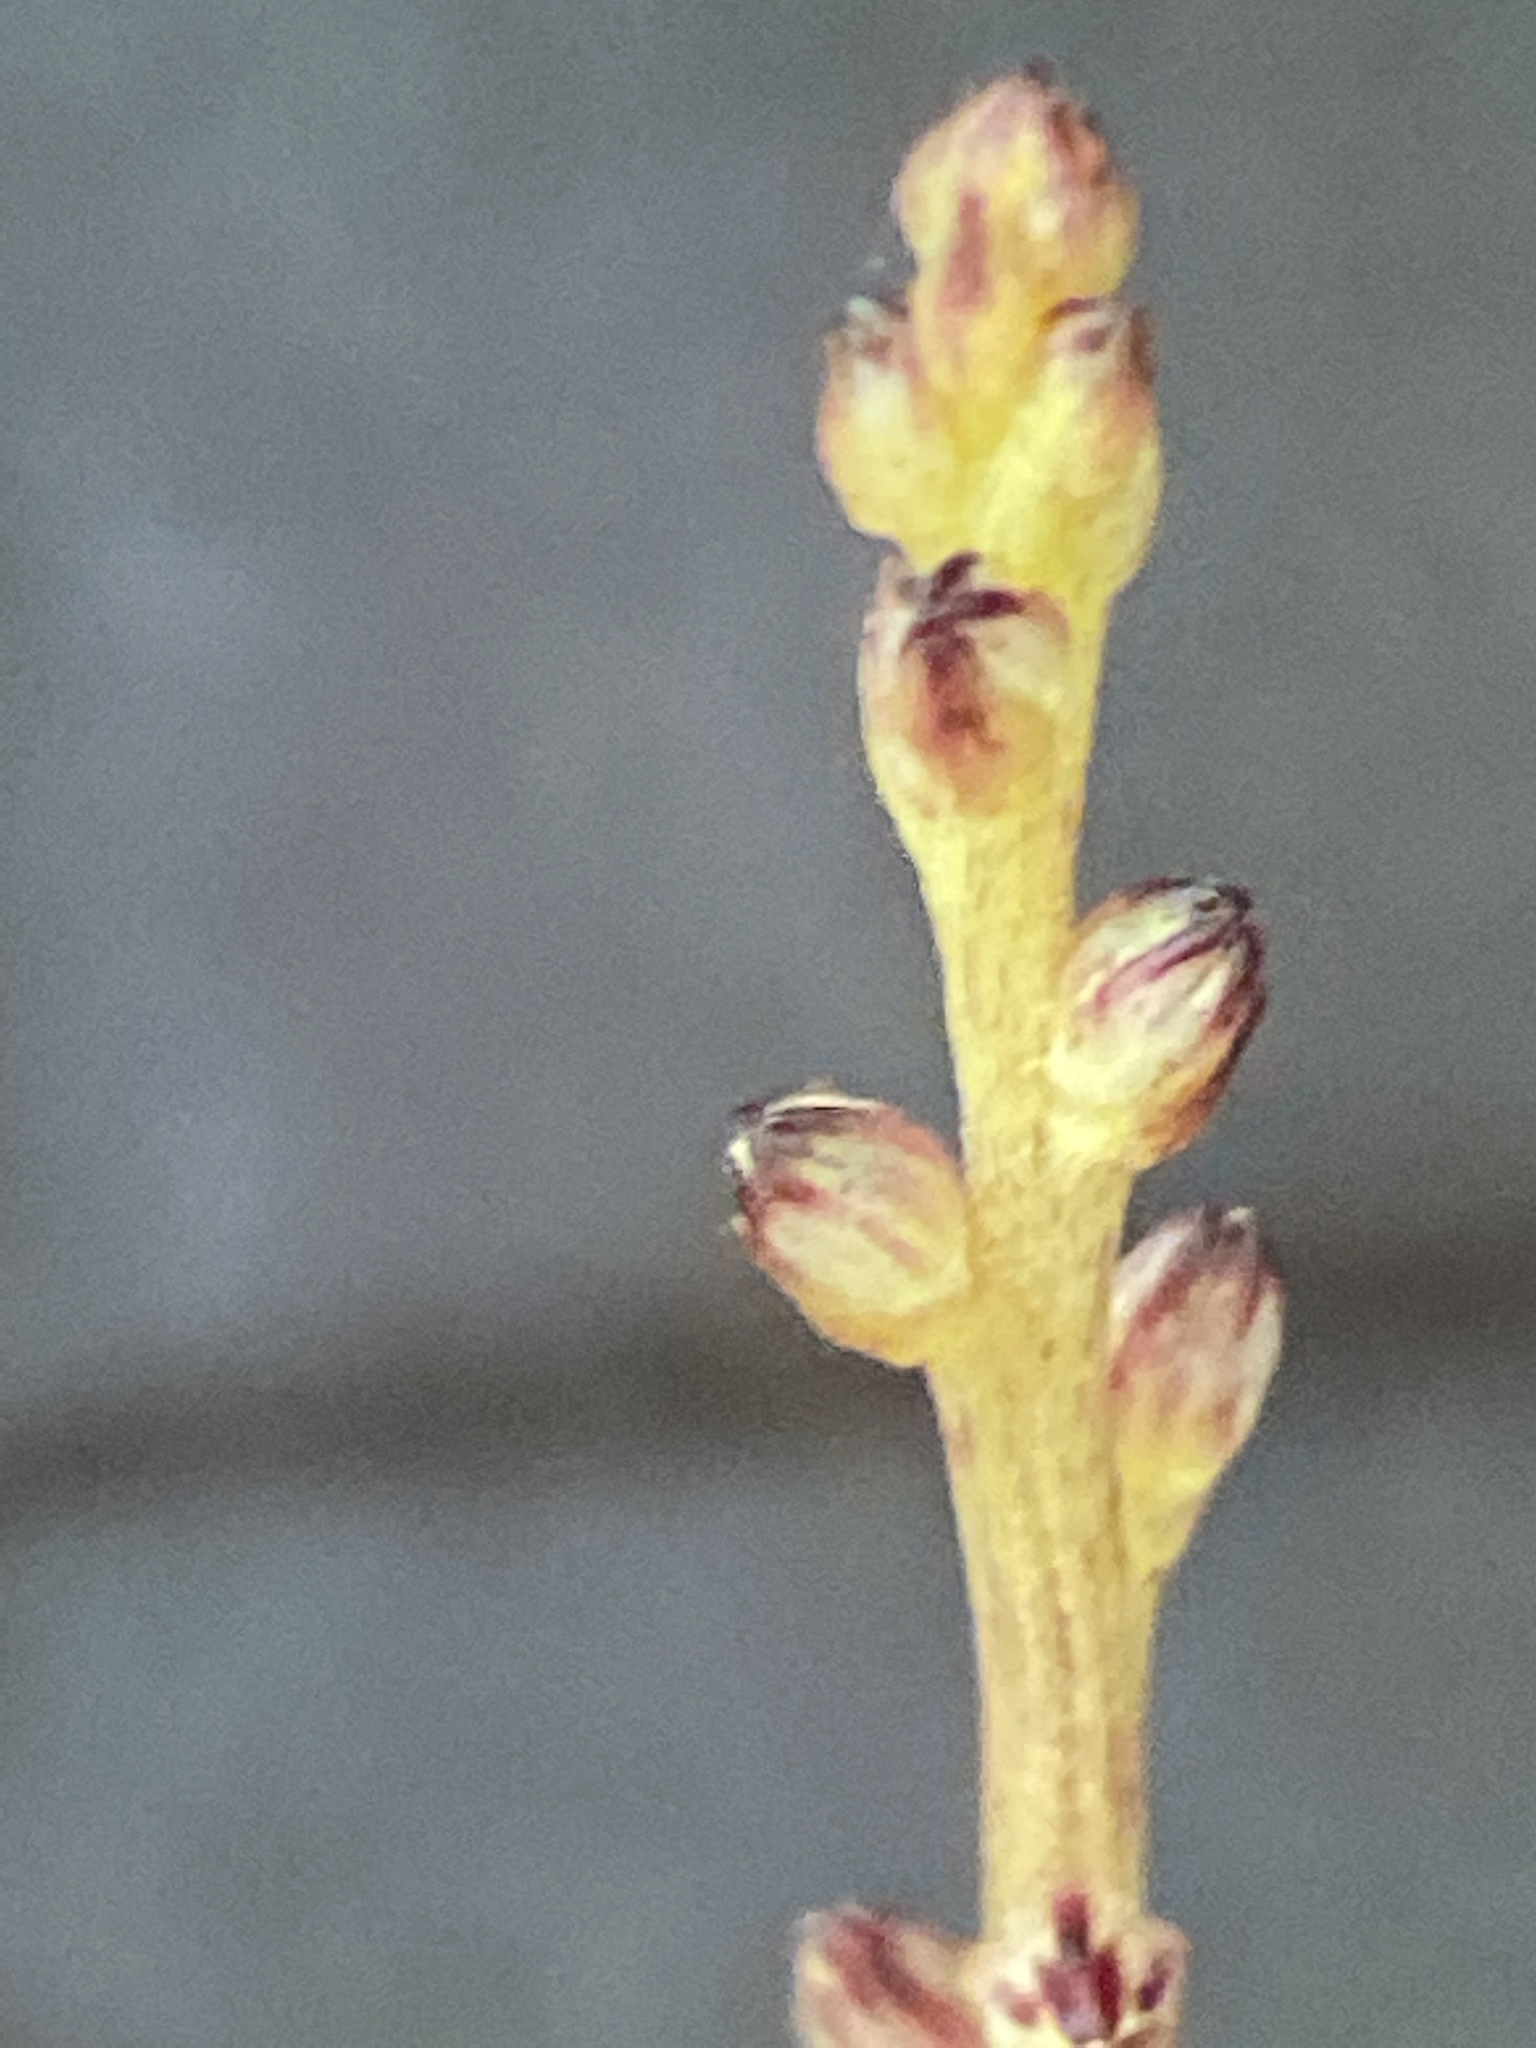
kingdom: Plantae
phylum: Tracheophyta
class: Magnoliopsida
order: Lamiales
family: Orobanchaceae
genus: Epifagus
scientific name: Epifagus virginiana
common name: Beechdrops
